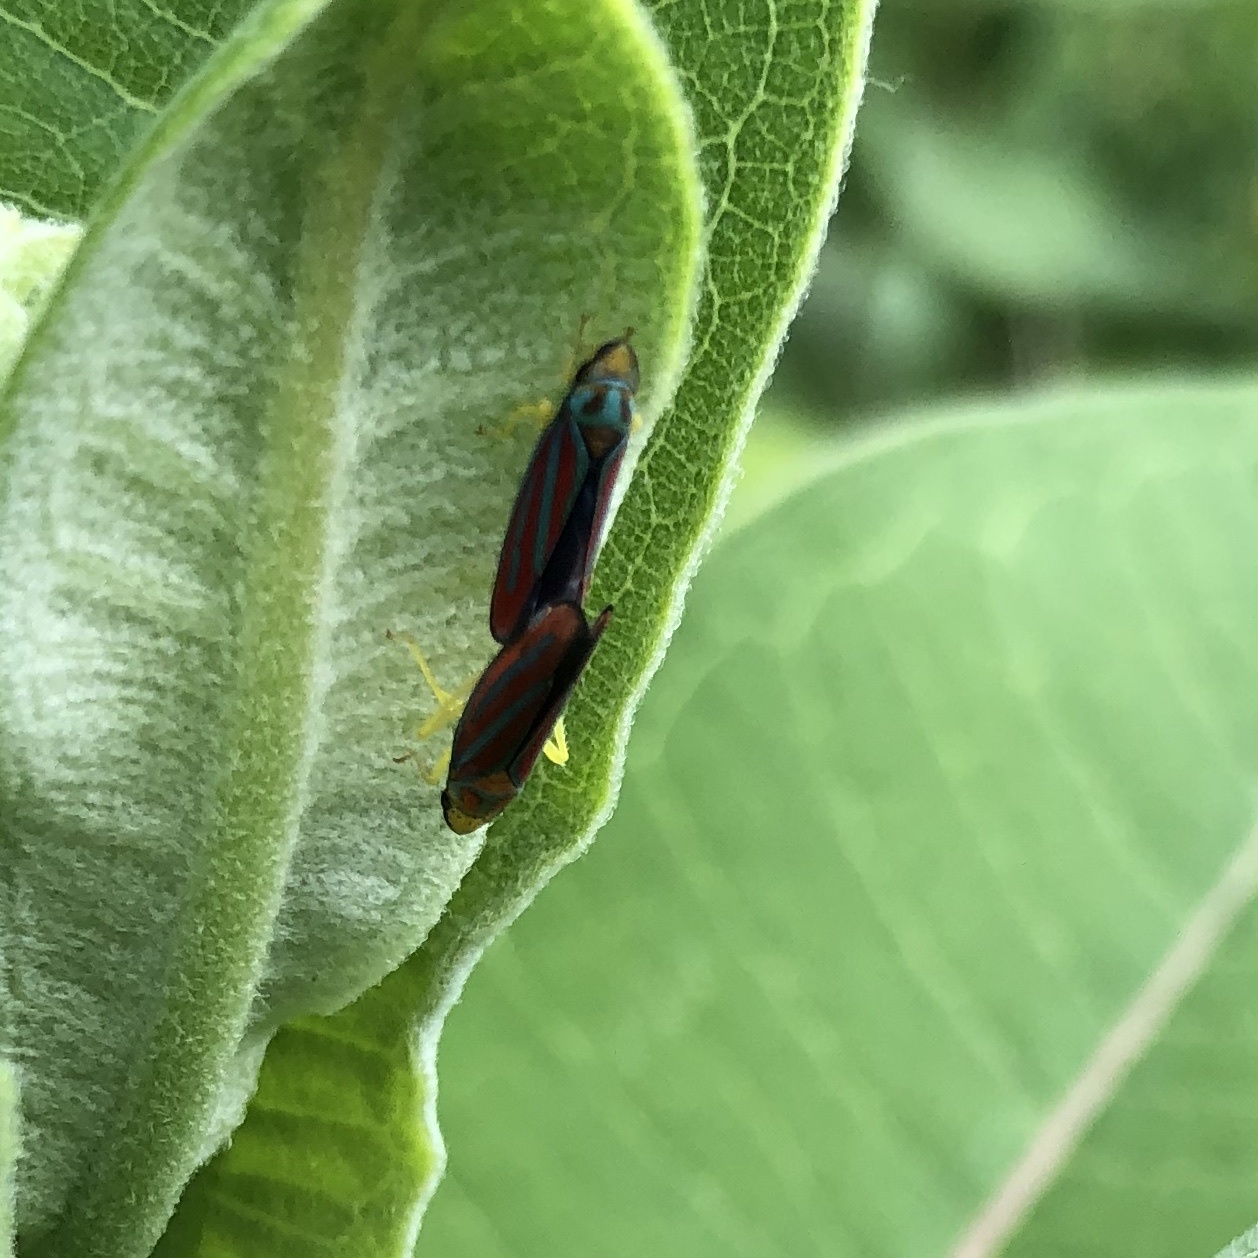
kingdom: Animalia
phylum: Arthropoda
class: Insecta
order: Hemiptera
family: Cicadellidae
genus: Graphocephala
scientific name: Graphocephala coccinea
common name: Candy-striped leafhopper
